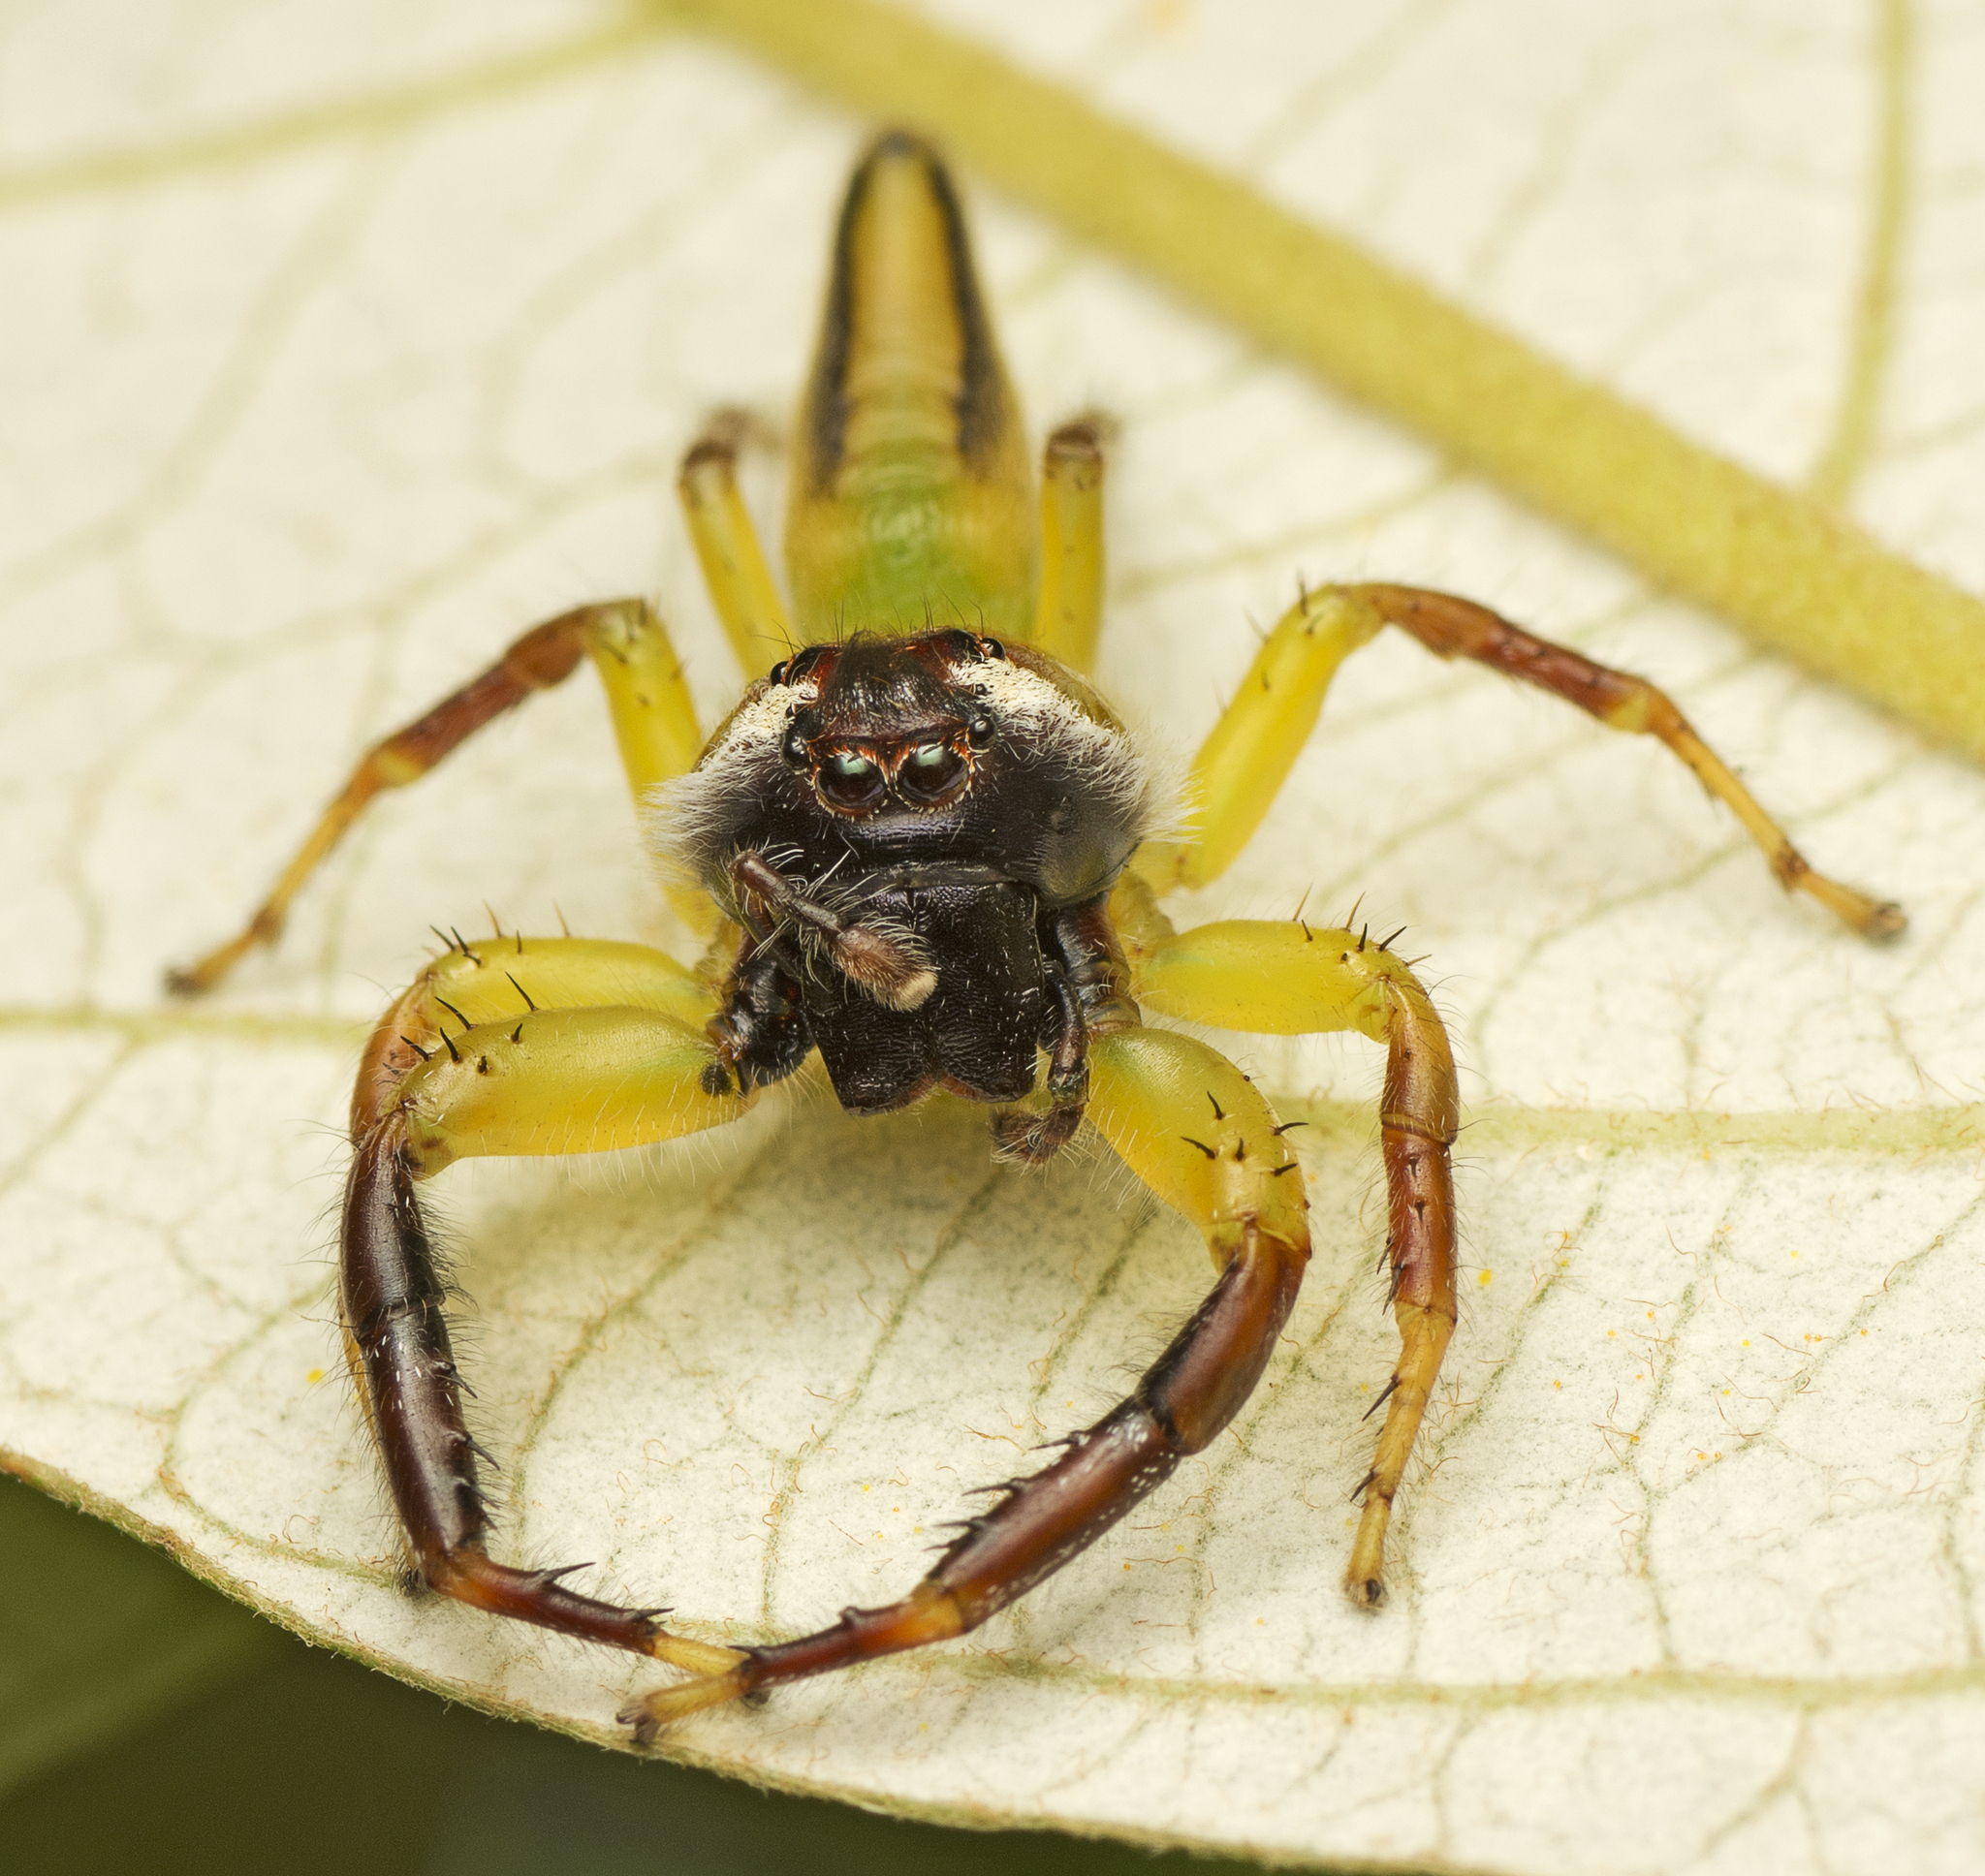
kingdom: Animalia
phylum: Arthropoda
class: Arachnida
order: Araneae
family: Salticidae
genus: Mopsus
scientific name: Mopsus mormon
